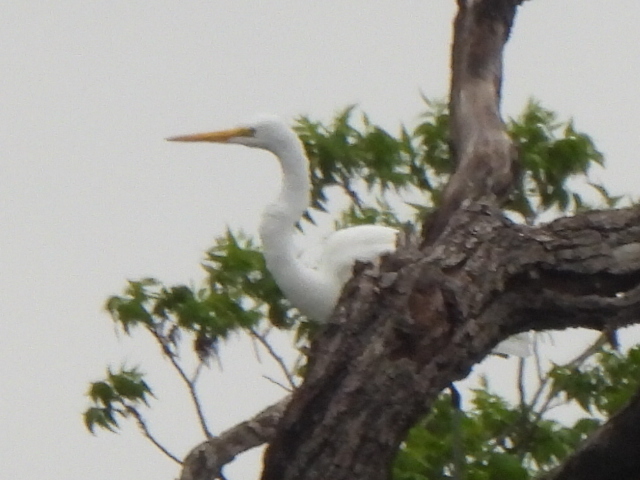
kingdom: Animalia
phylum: Chordata
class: Aves
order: Pelecaniformes
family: Ardeidae
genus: Ardea
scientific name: Ardea alba
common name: Great egret
